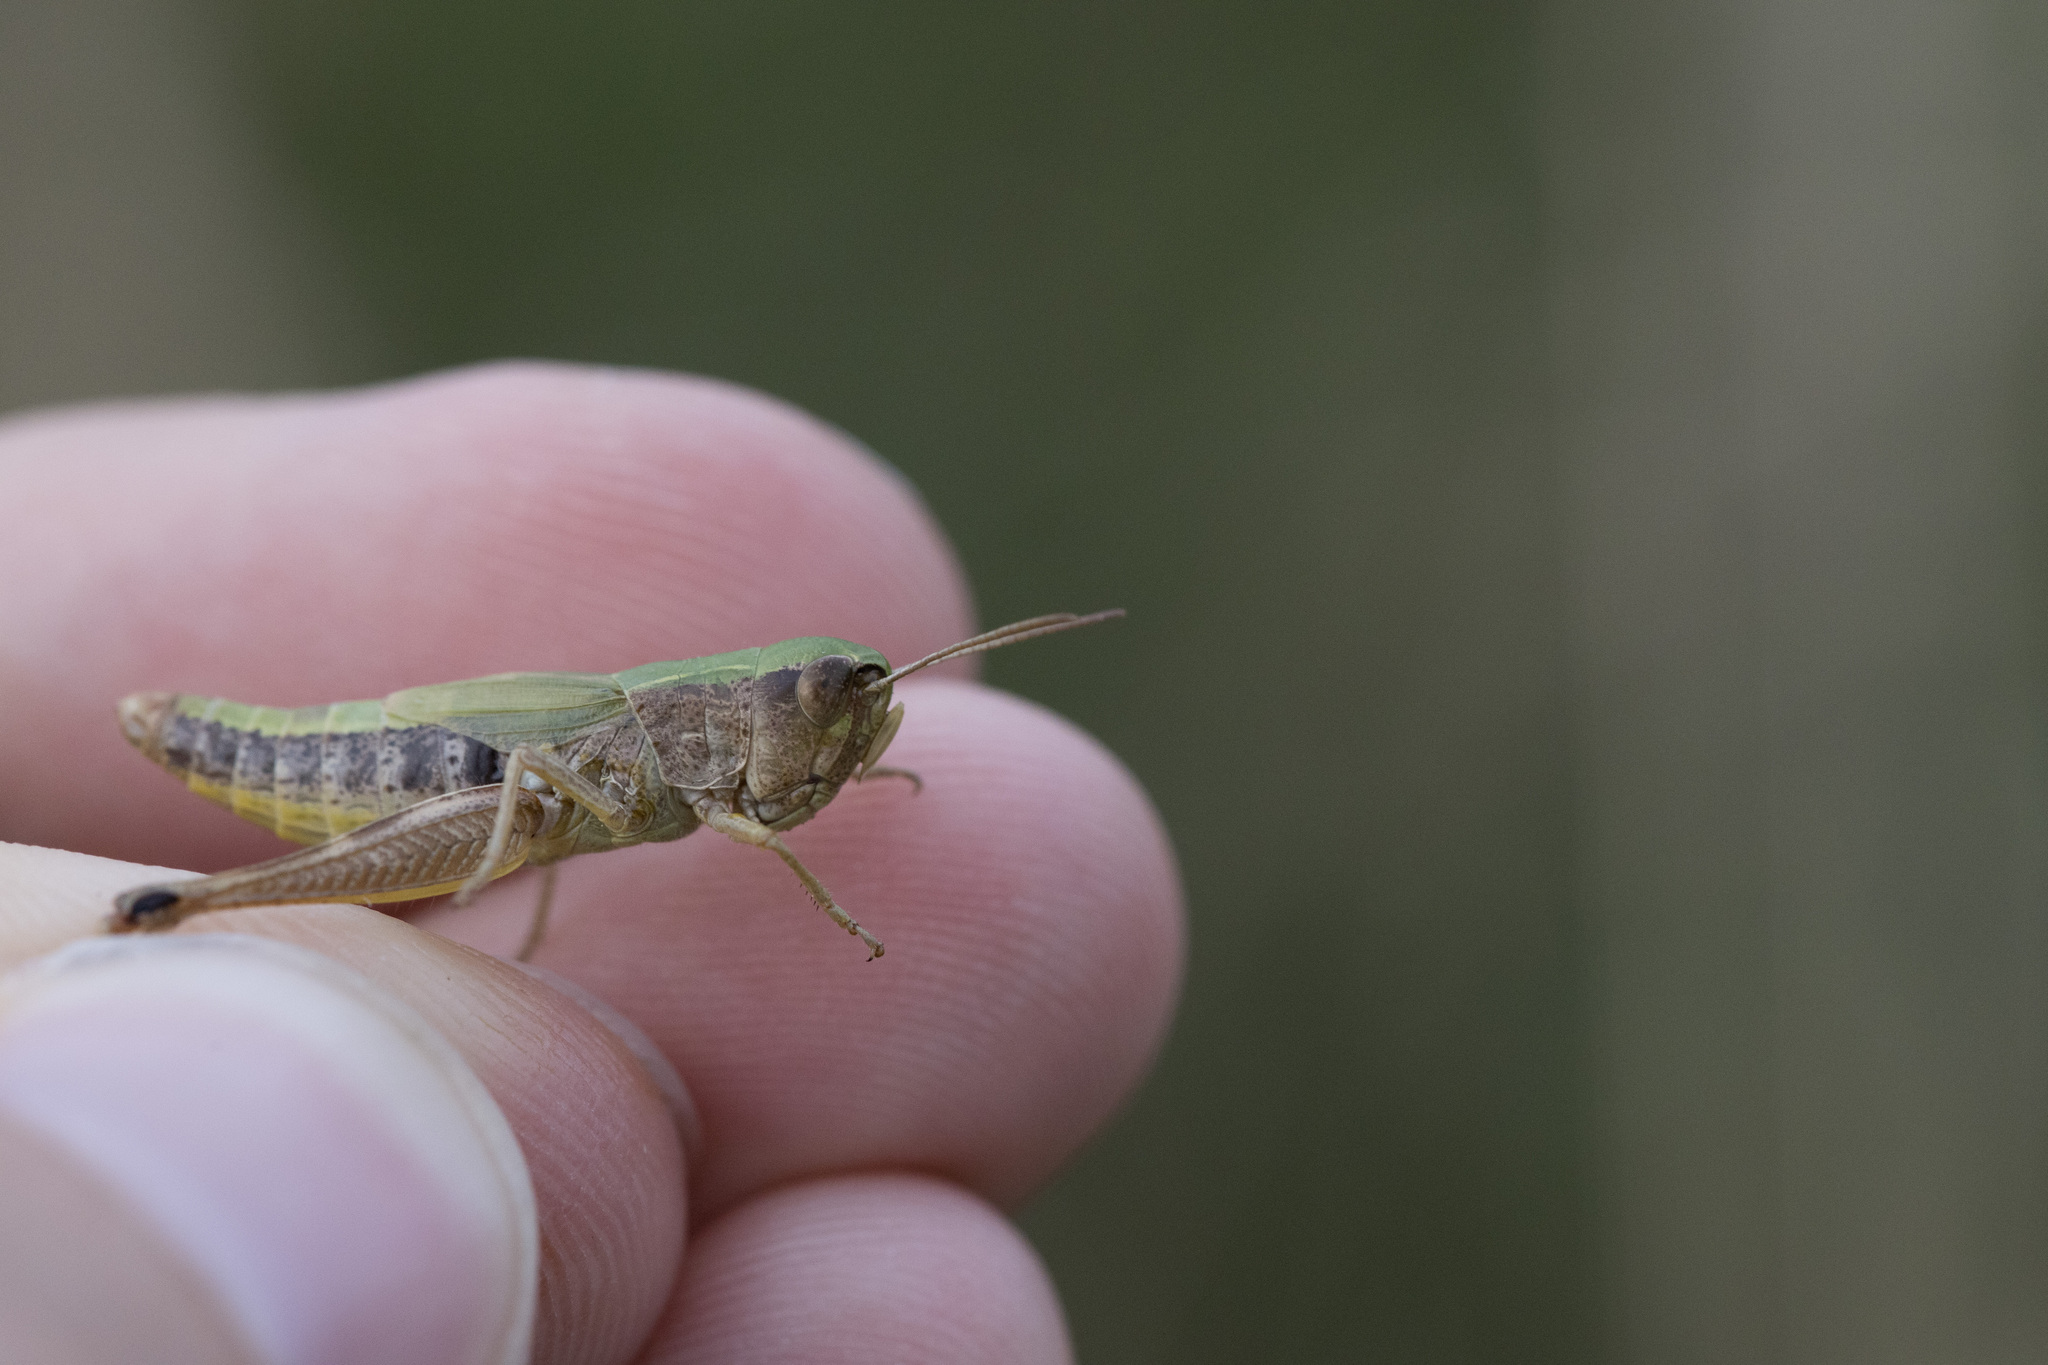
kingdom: Animalia
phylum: Arthropoda
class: Insecta
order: Orthoptera
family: Acrididae
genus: Pseudochorthippus
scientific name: Pseudochorthippus parallelus
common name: Meadow grasshopper
